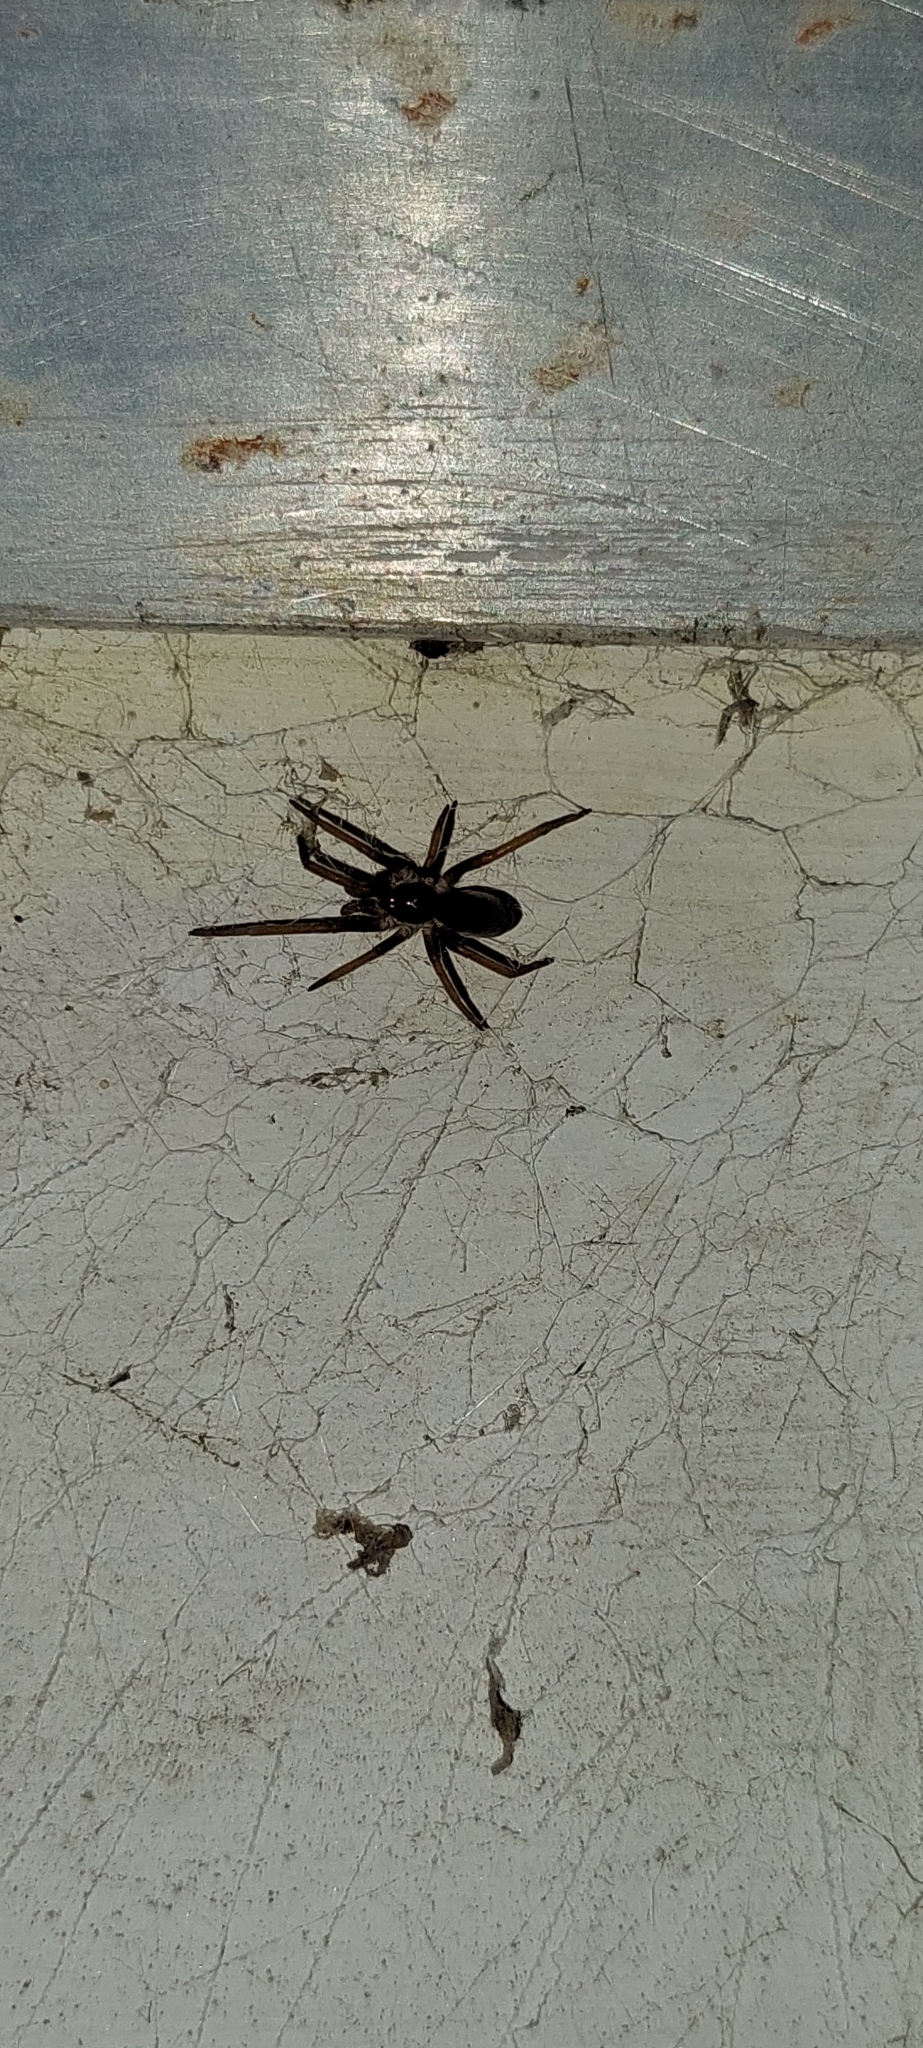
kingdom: Animalia
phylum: Arthropoda
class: Arachnida
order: Araneae
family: Filistatidae
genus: Kukulcania
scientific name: Kukulcania hibernalis
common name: Crevice weaver
